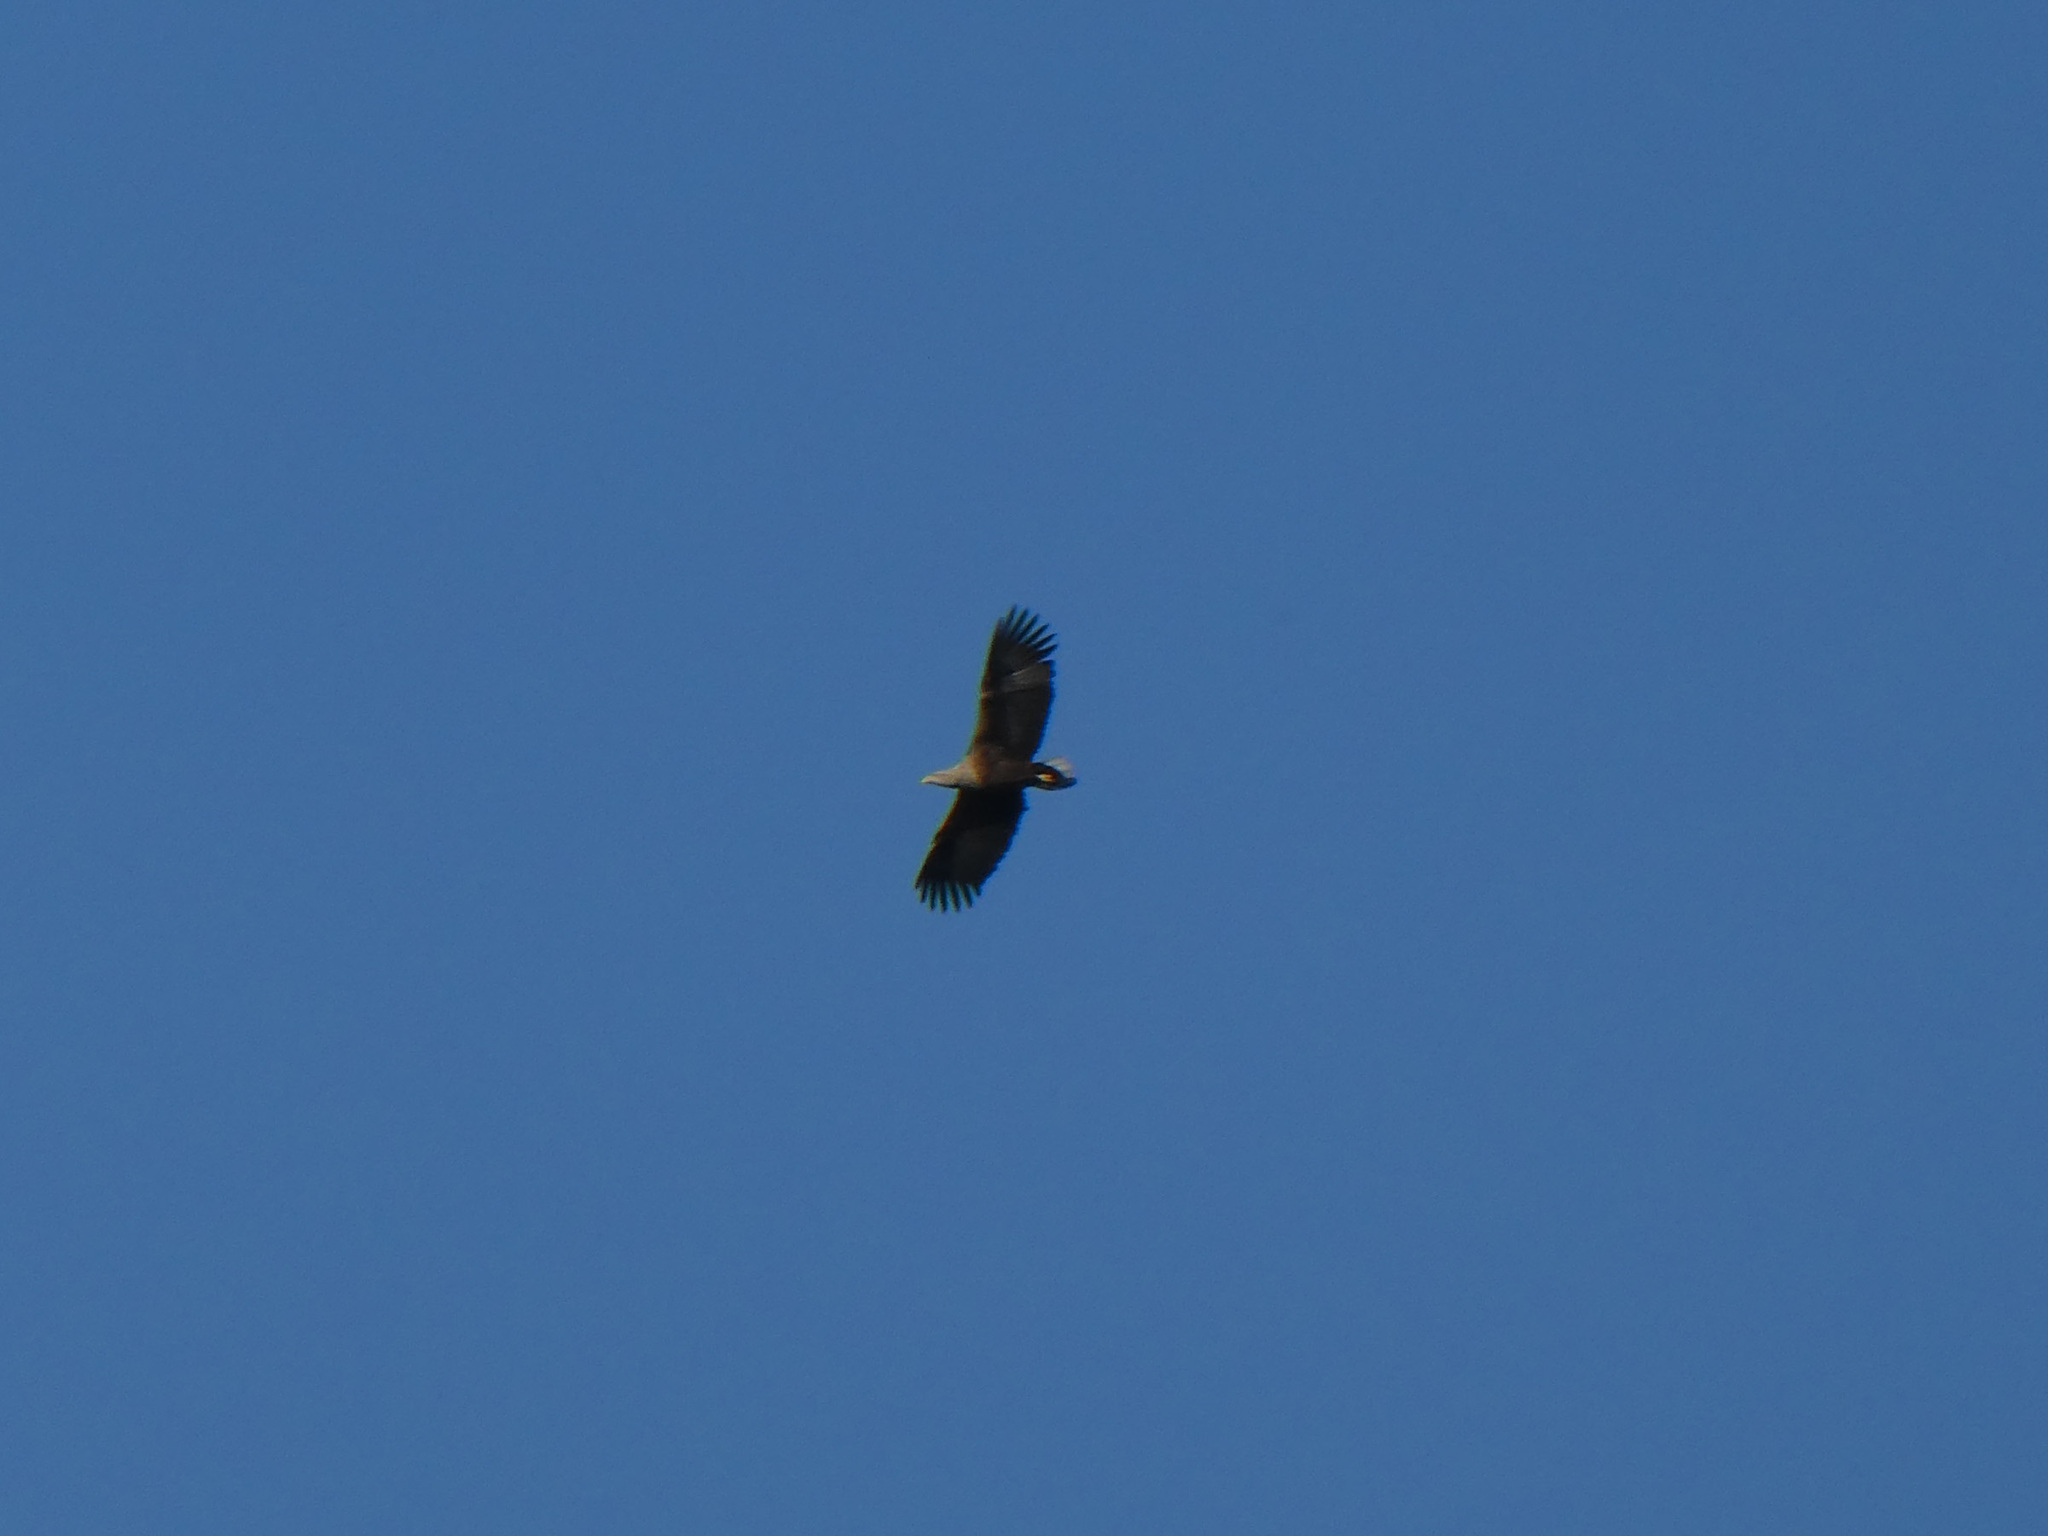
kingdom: Animalia
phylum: Chordata
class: Aves
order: Accipitriformes
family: Accipitridae
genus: Haliaeetus
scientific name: Haliaeetus albicilla
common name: White-tailed eagle
